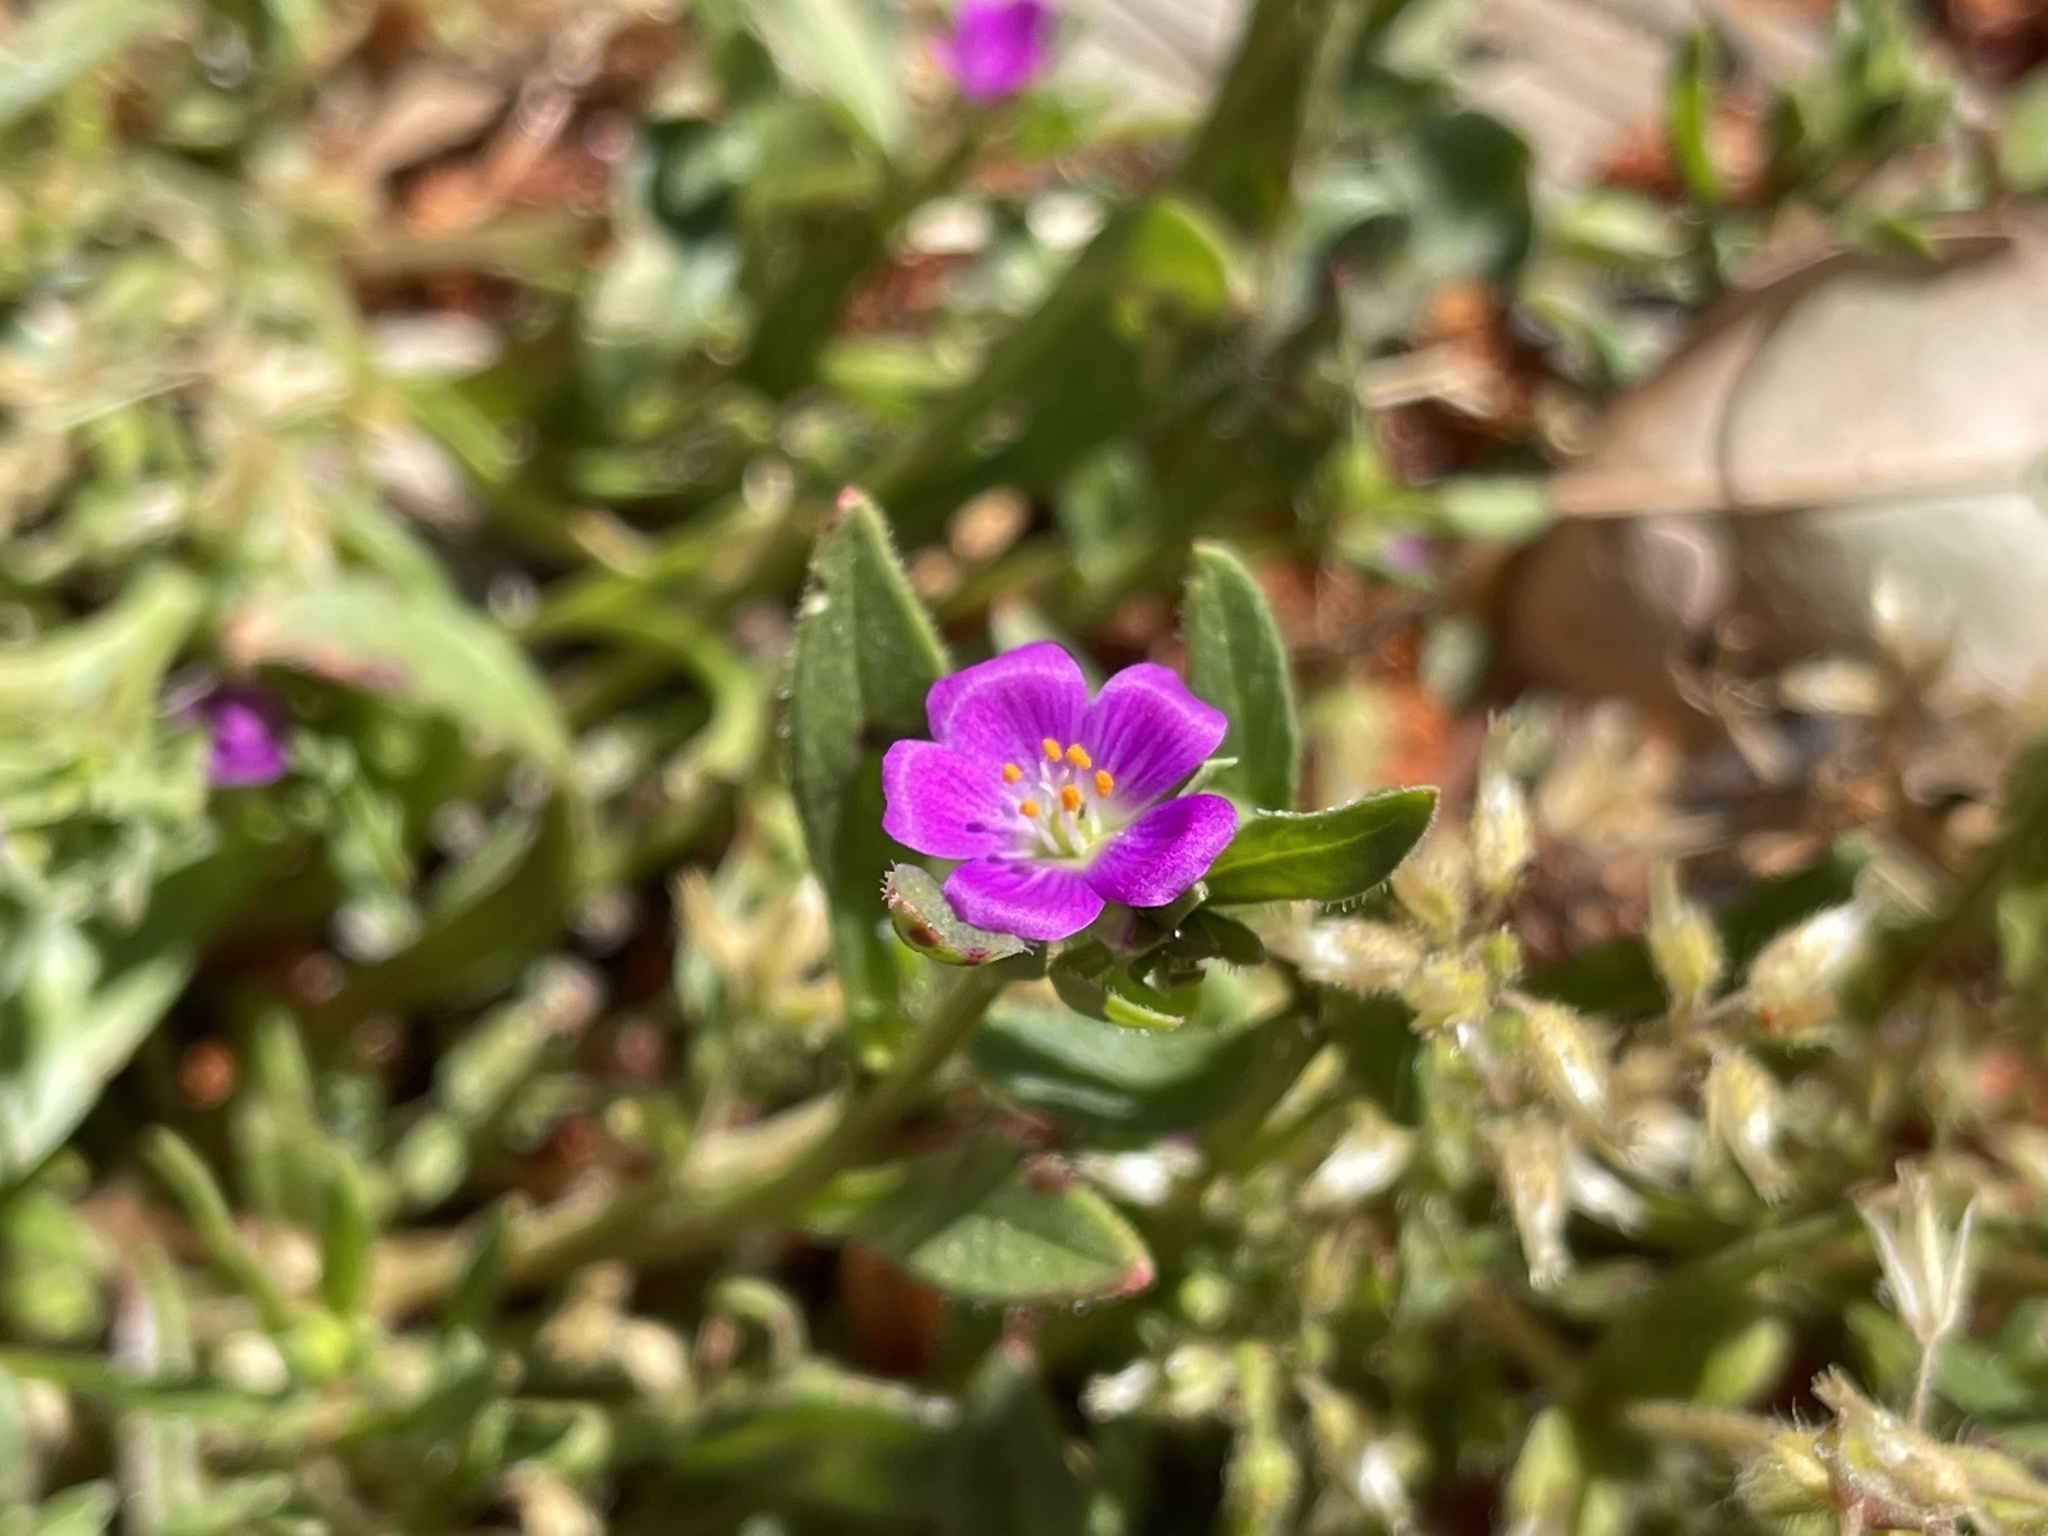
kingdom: Plantae
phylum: Tracheophyta
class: Magnoliopsida
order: Caryophyllales
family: Montiaceae
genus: Calandrinia
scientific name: Calandrinia menziesii
